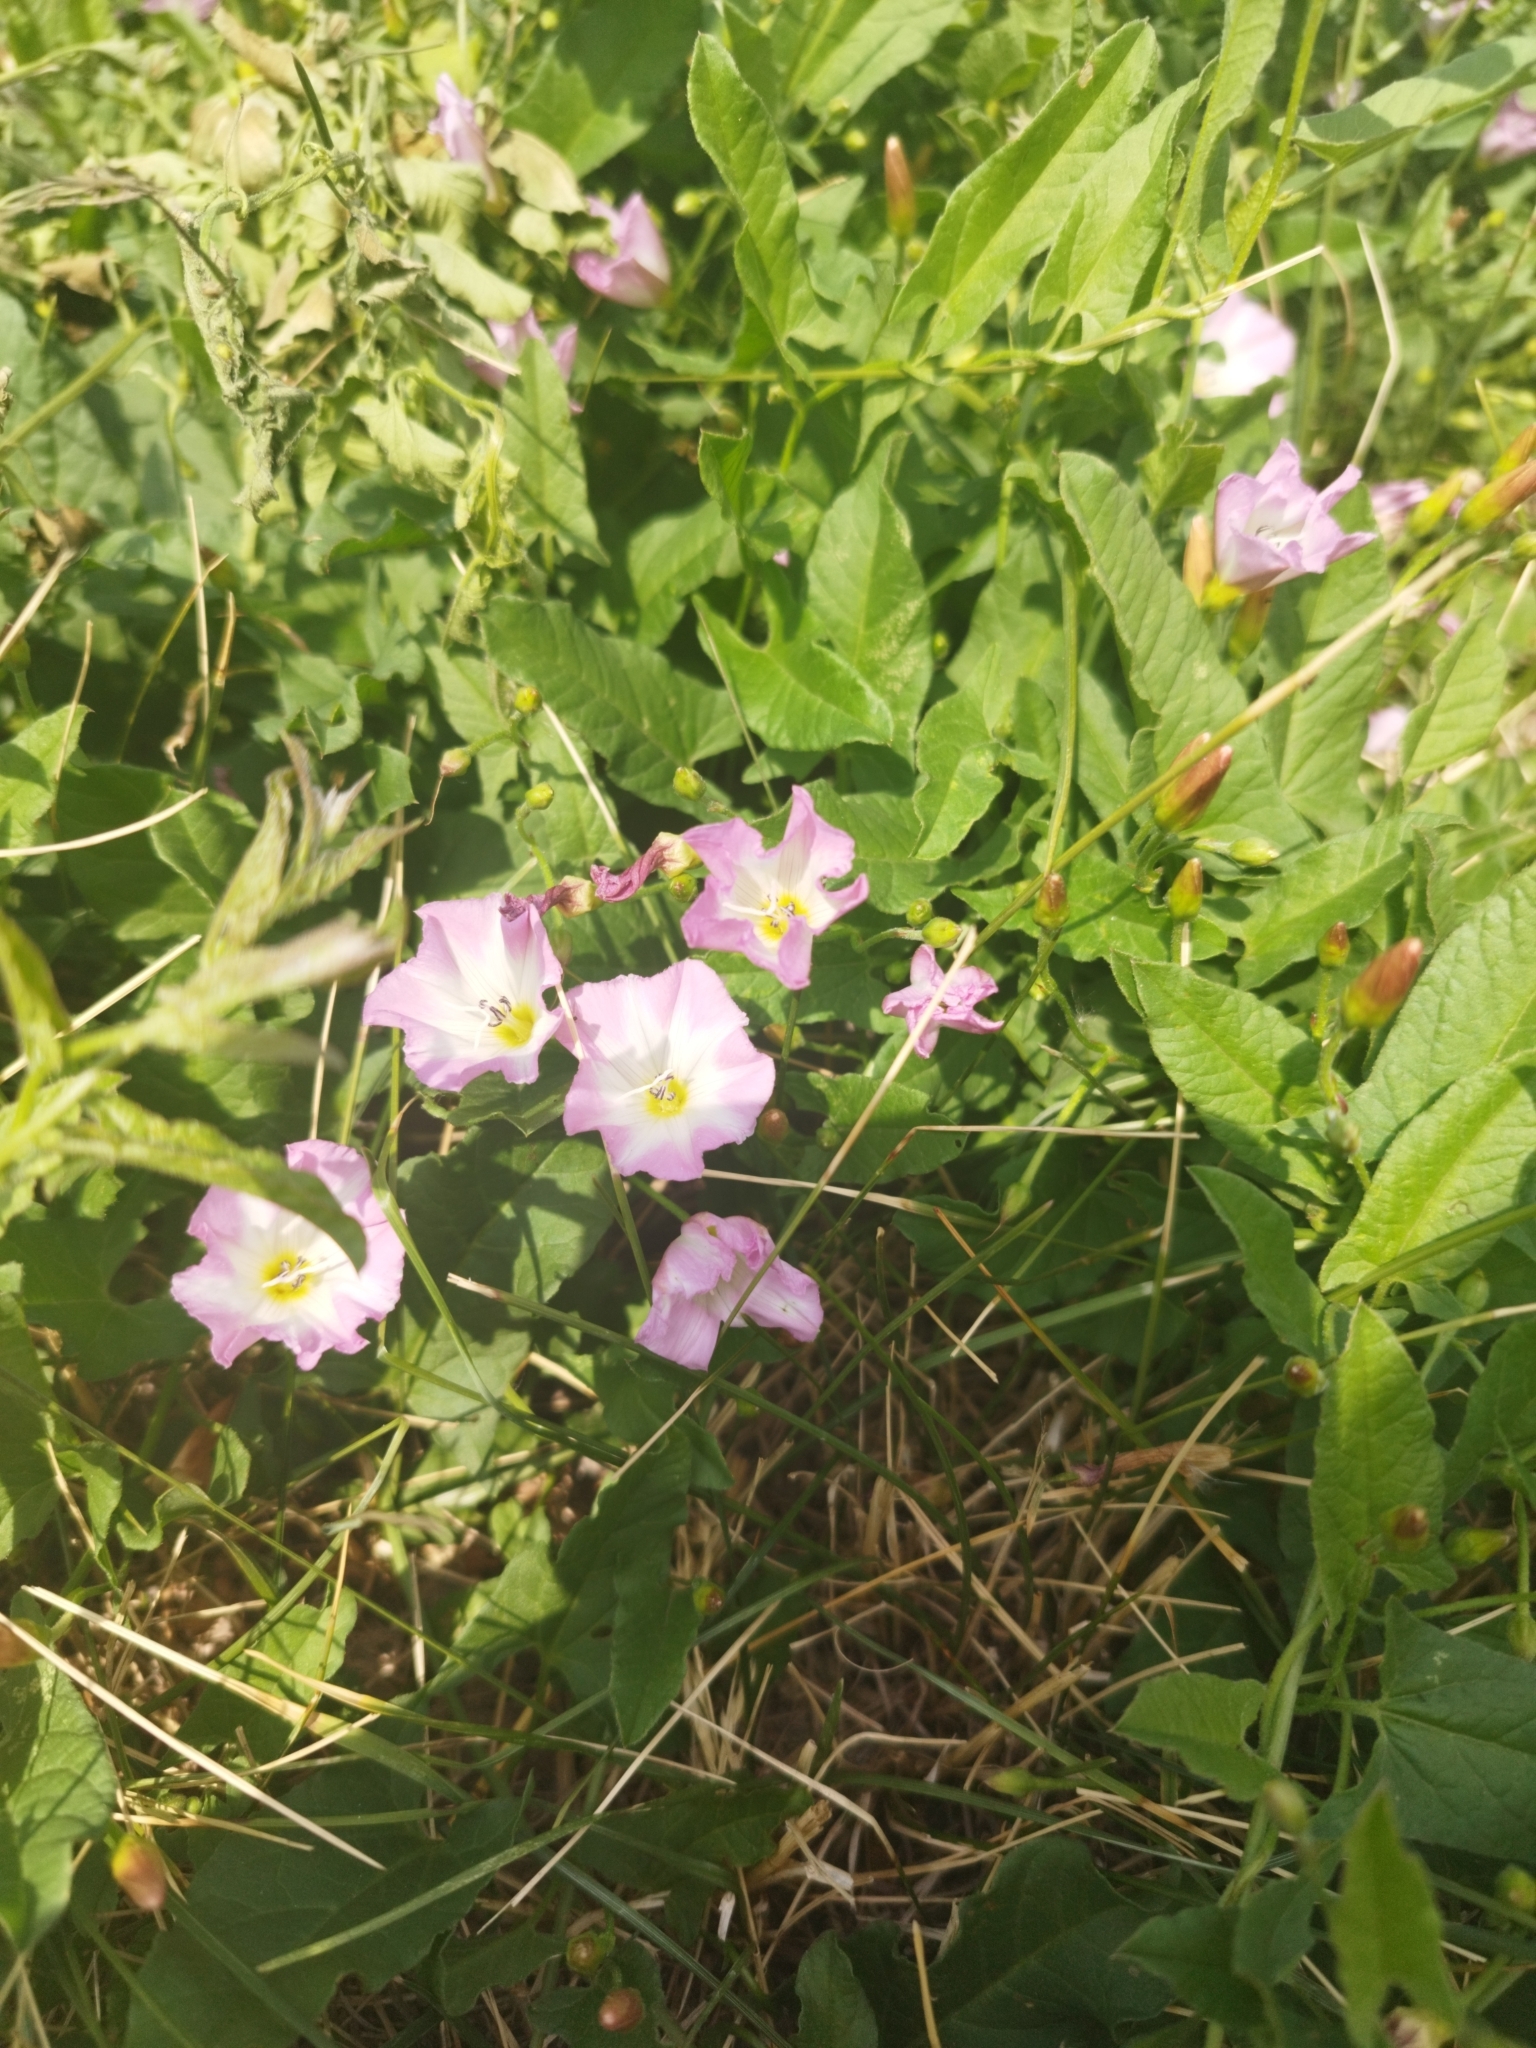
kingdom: Plantae
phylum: Tracheophyta
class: Magnoliopsida
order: Solanales
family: Convolvulaceae
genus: Convolvulus
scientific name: Convolvulus arvensis
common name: Field bindweed
